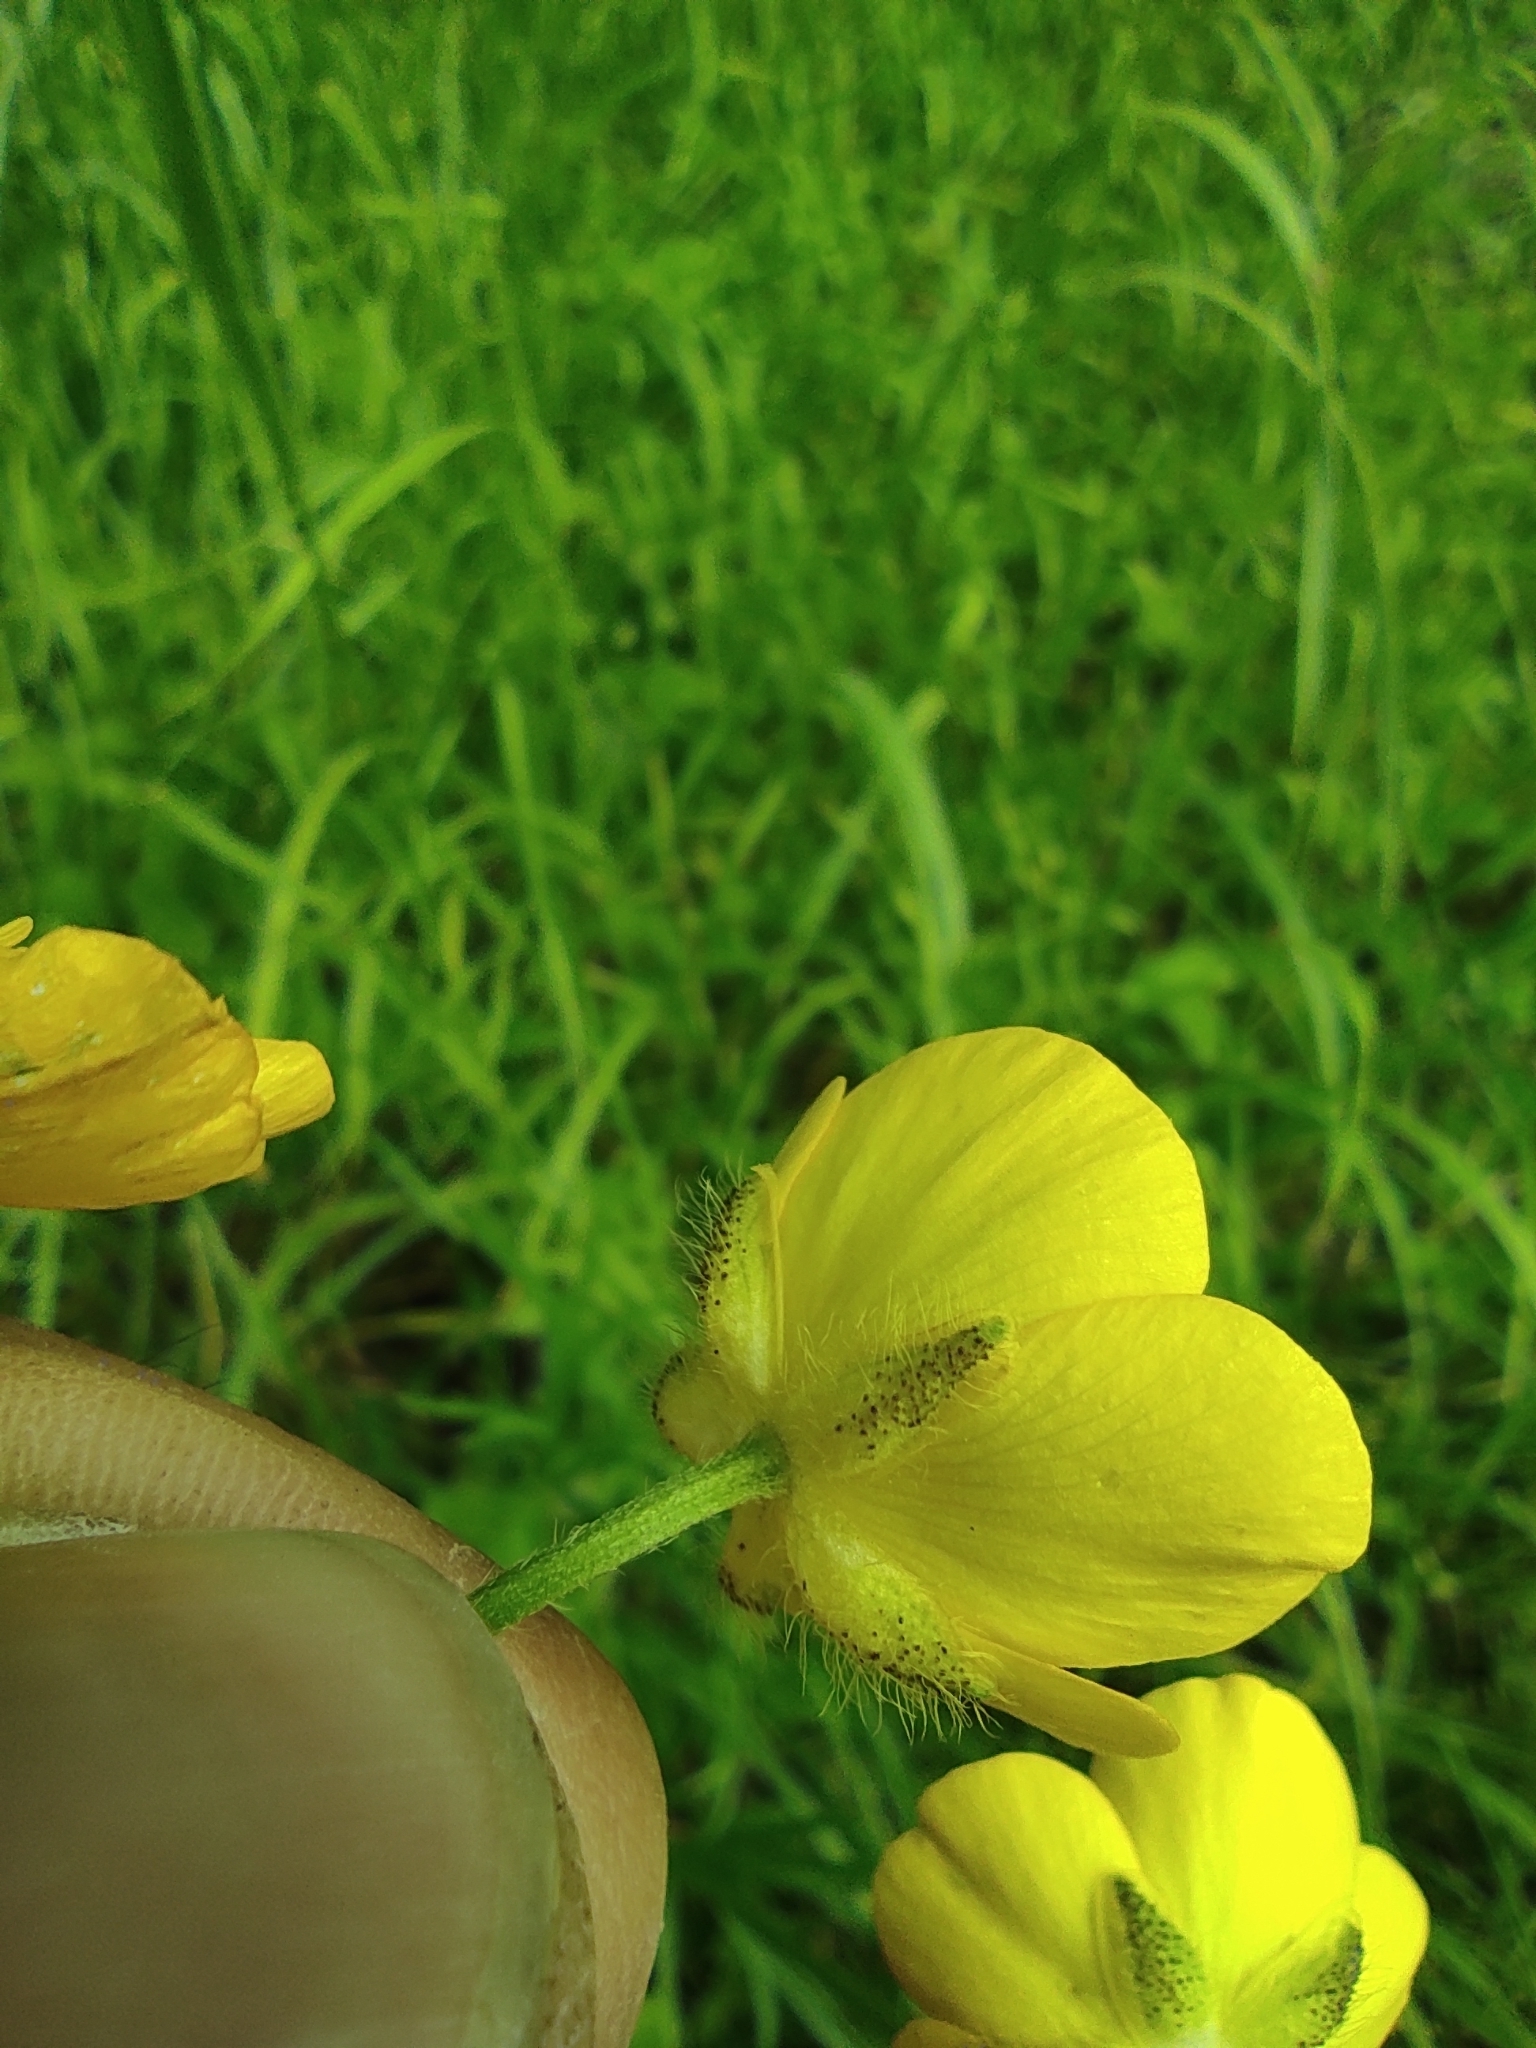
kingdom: Plantae
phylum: Tracheophyta
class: Magnoliopsida
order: Ranunculales
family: Ranunculaceae
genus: Ranunculus
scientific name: Ranunculus polyanthemos
